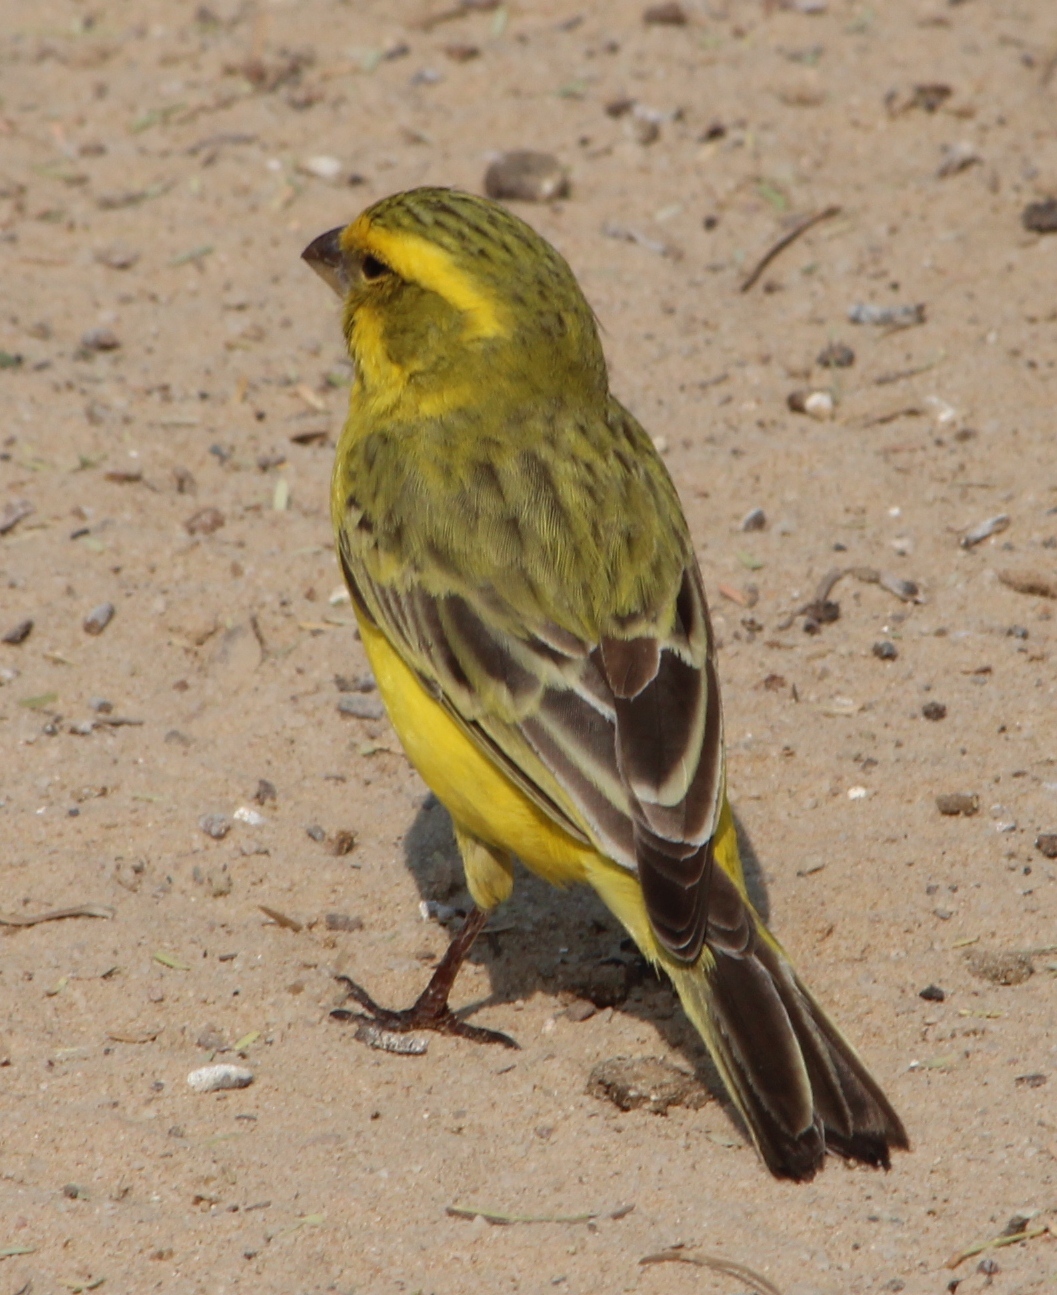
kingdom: Animalia
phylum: Chordata
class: Aves
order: Passeriformes
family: Fringillidae
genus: Crithagra
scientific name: Crithagra flaviventris
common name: Yellow canary
